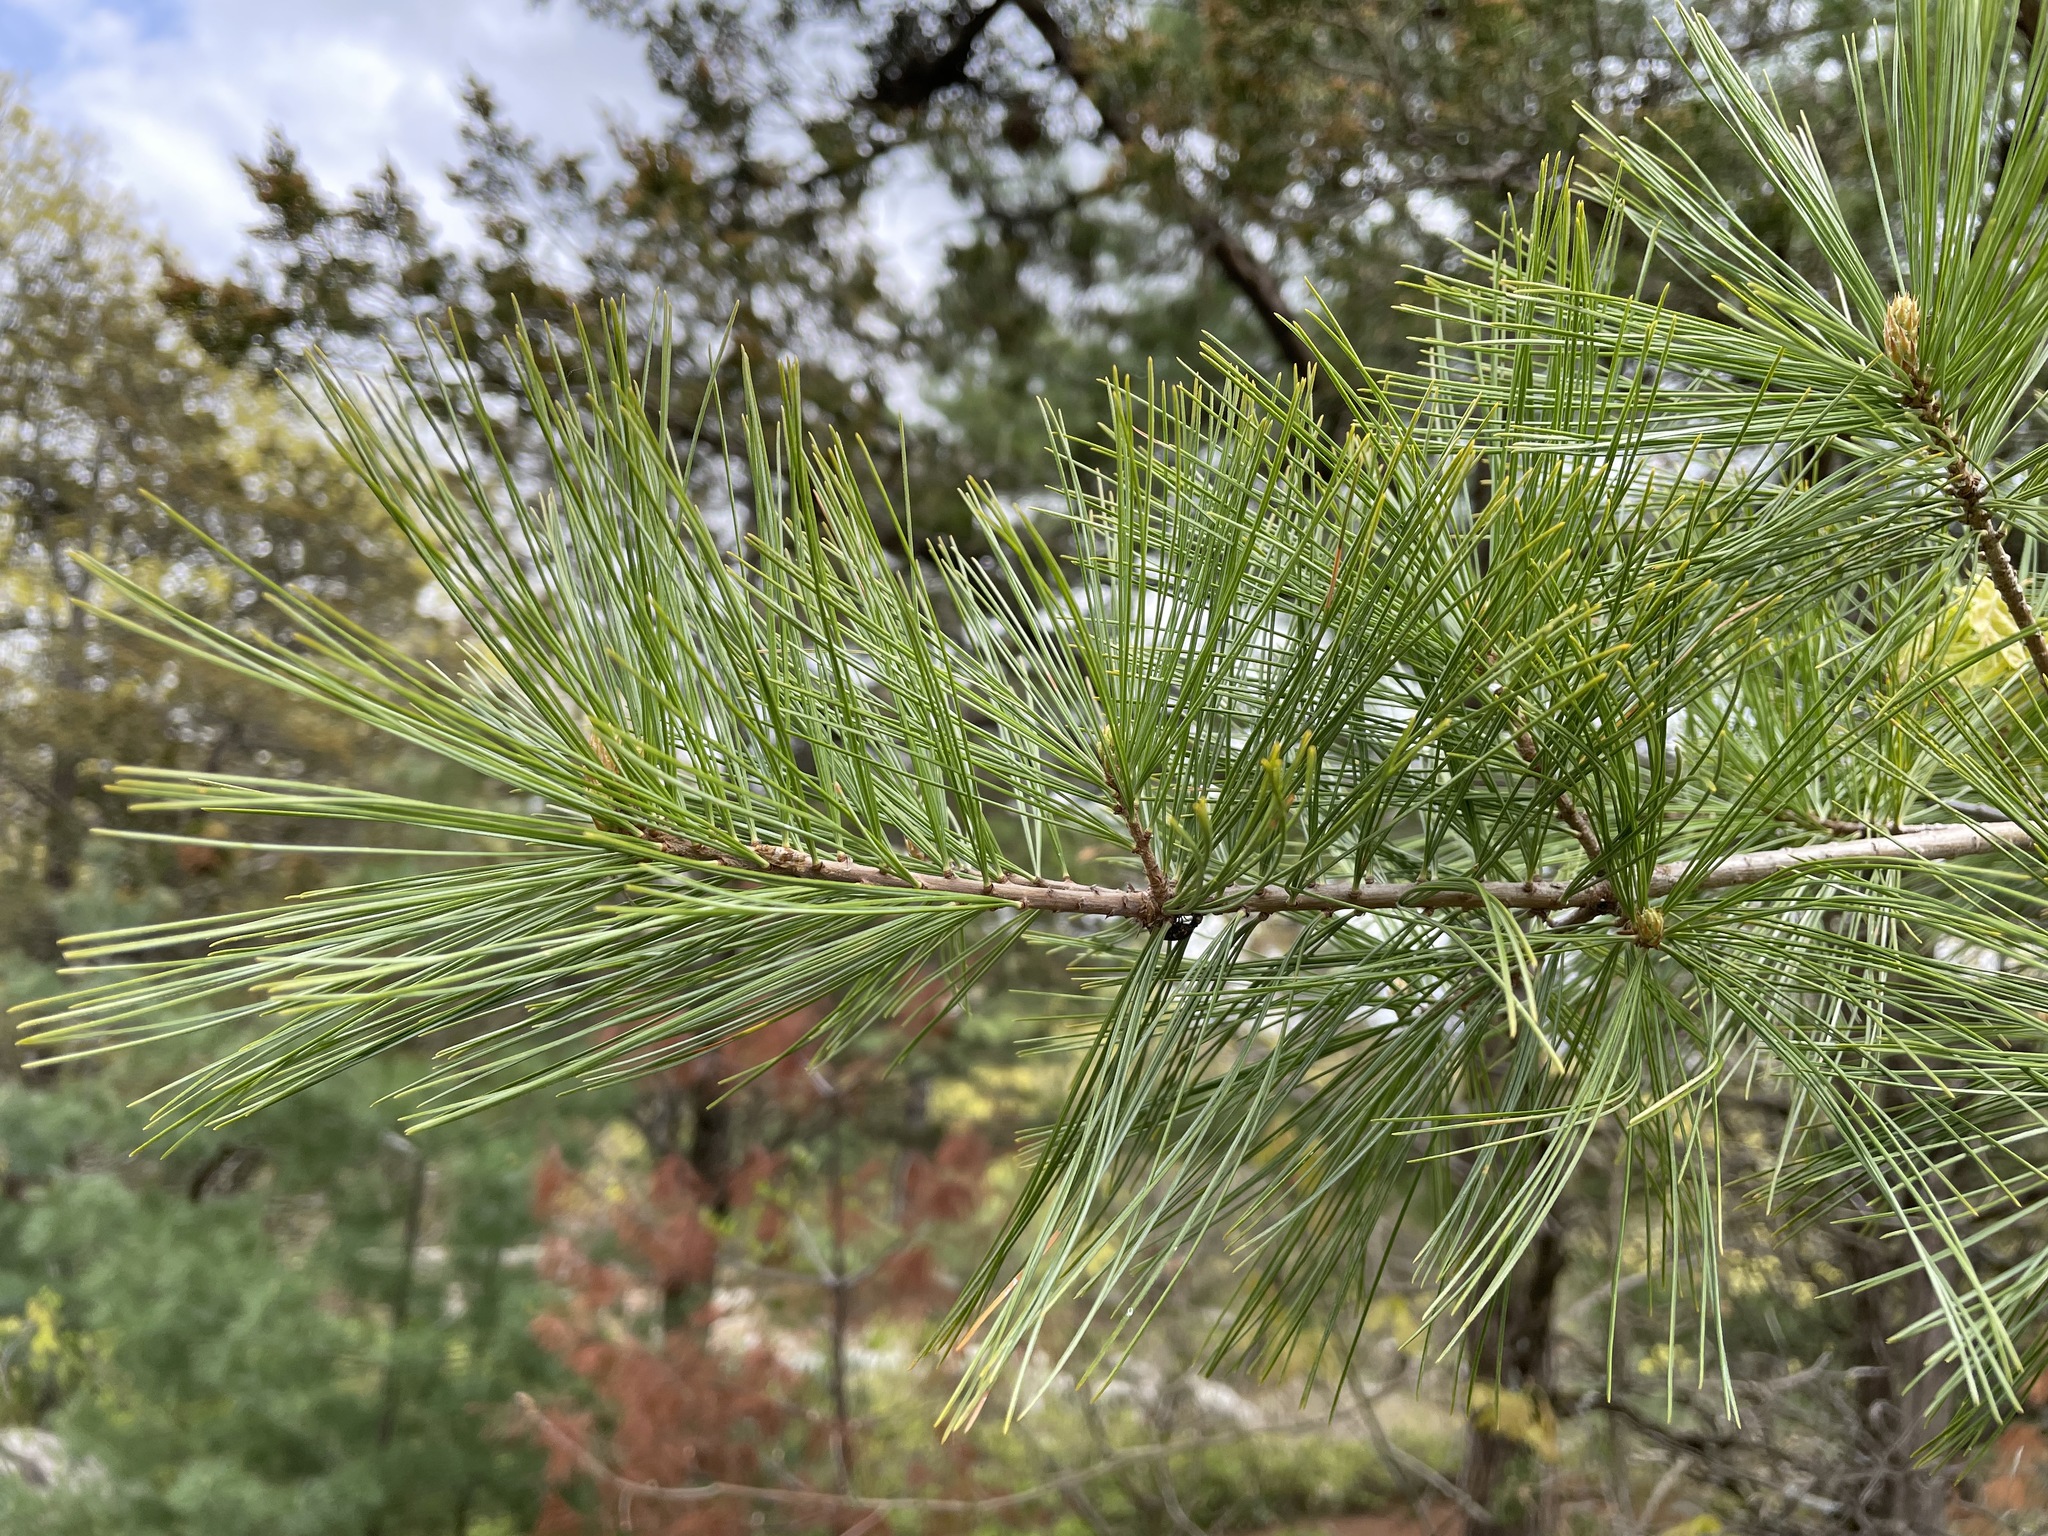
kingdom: Plantae
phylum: Tracheophyta
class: Pinopsida
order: Pinales
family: Pinaceae
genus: Pinus
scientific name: Pinus strobus
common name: Weymouth pine
